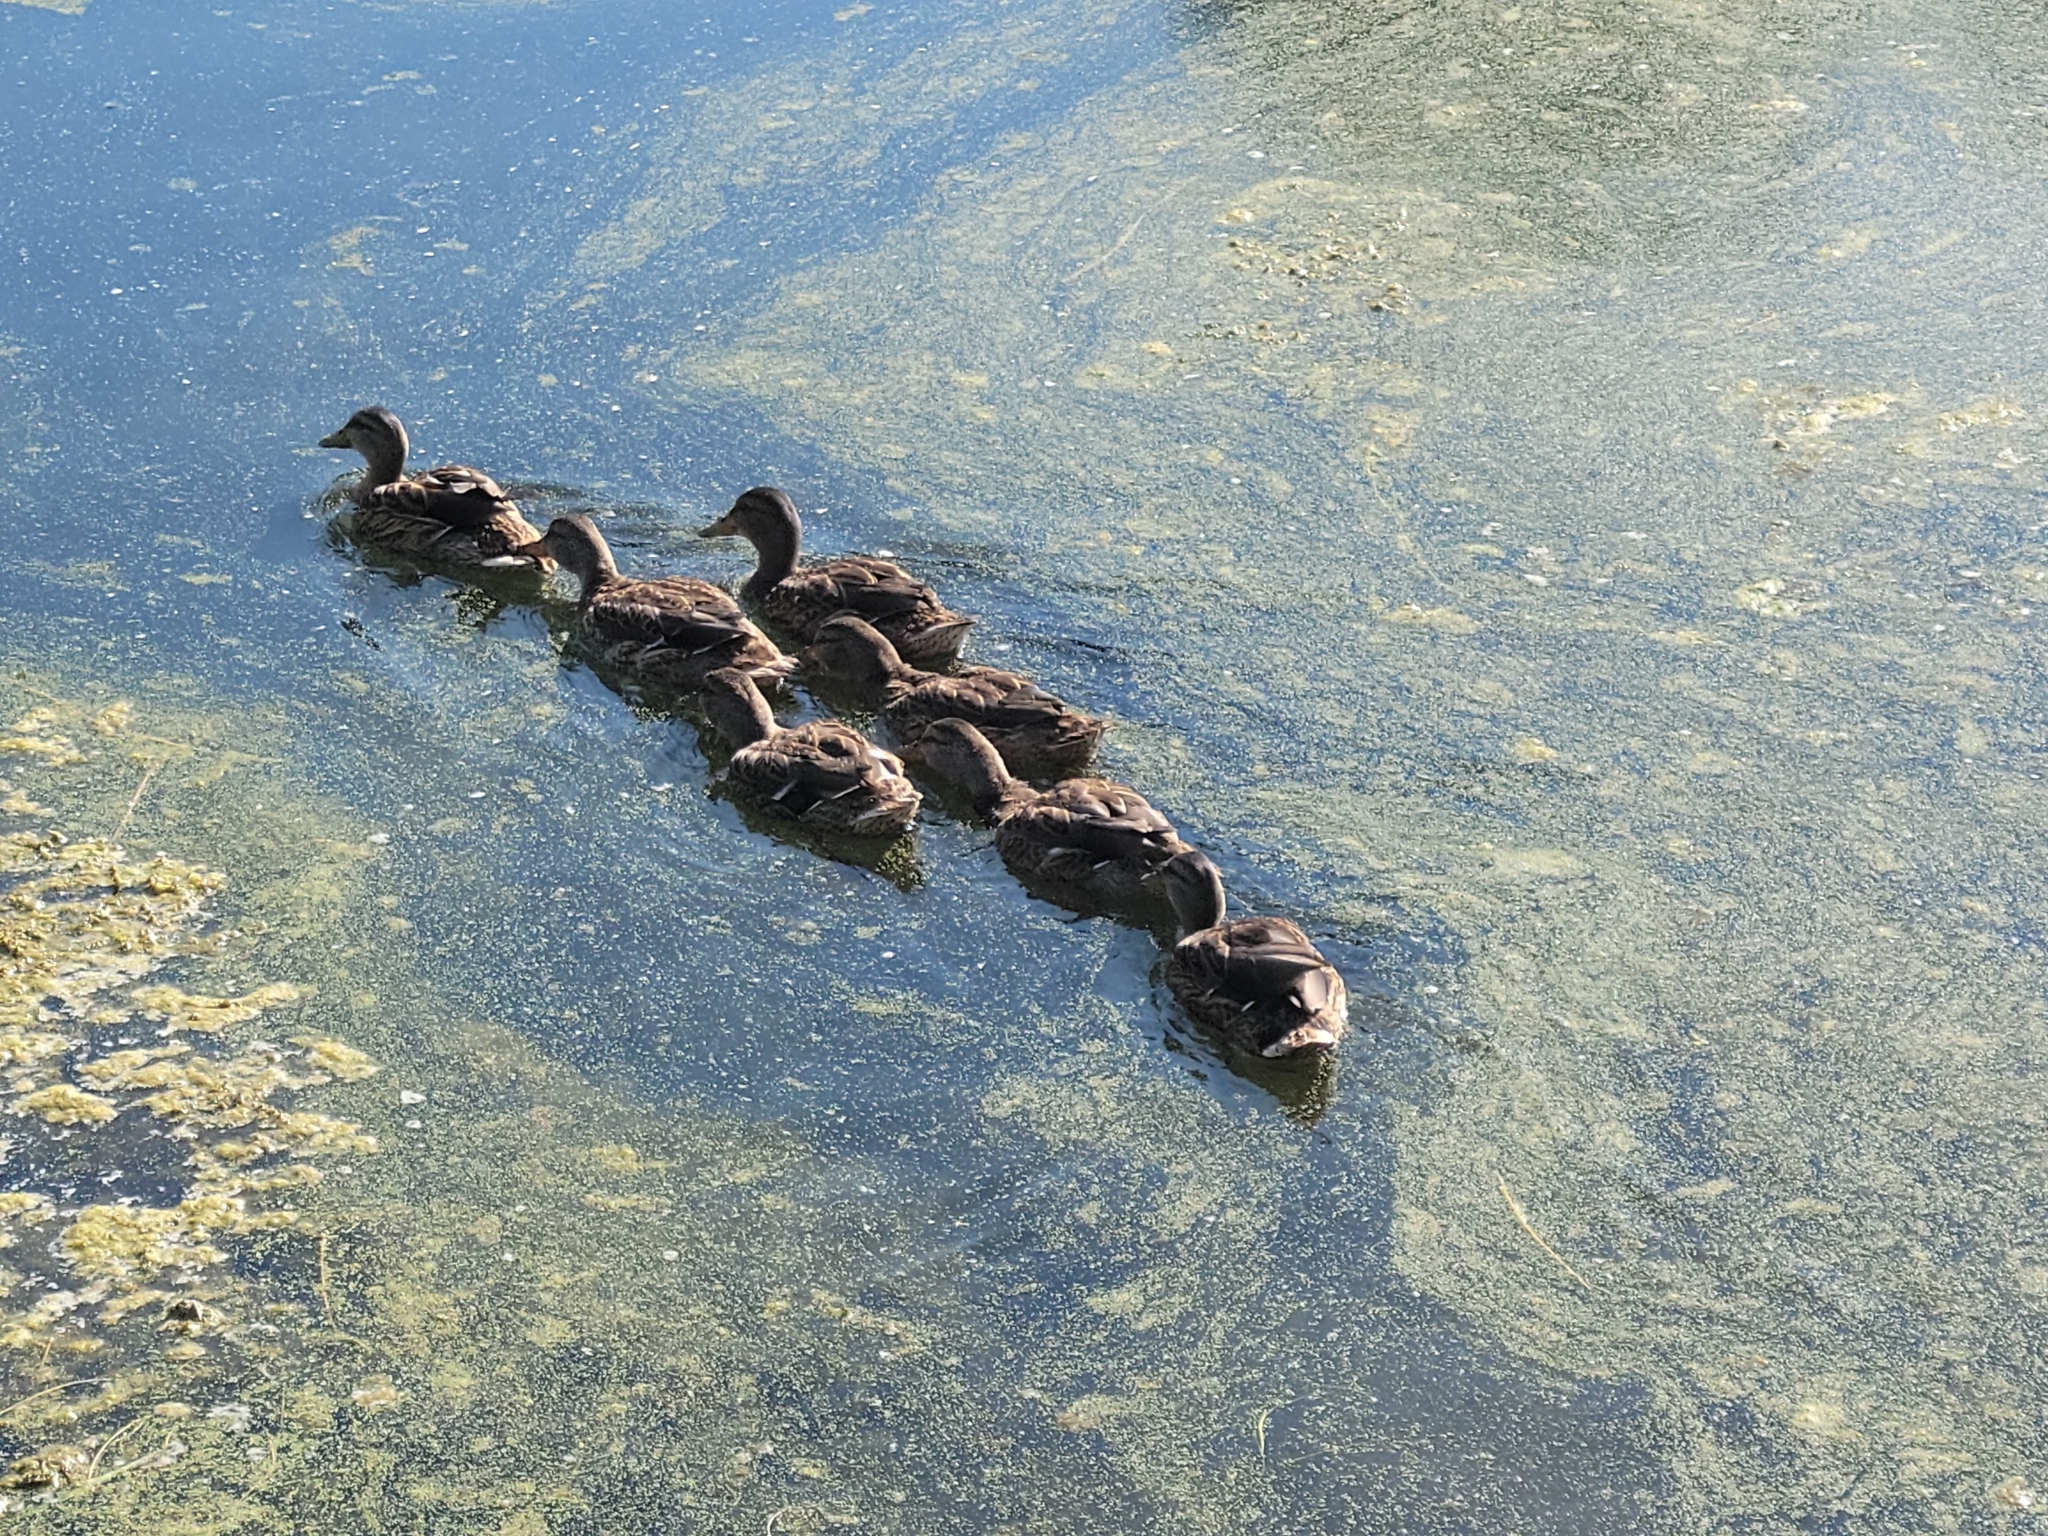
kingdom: Animalia
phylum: Chordata
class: Aves
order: Anseriformes
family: Anatidae
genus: Anas
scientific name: Anas platyrhynchos
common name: Mallard
